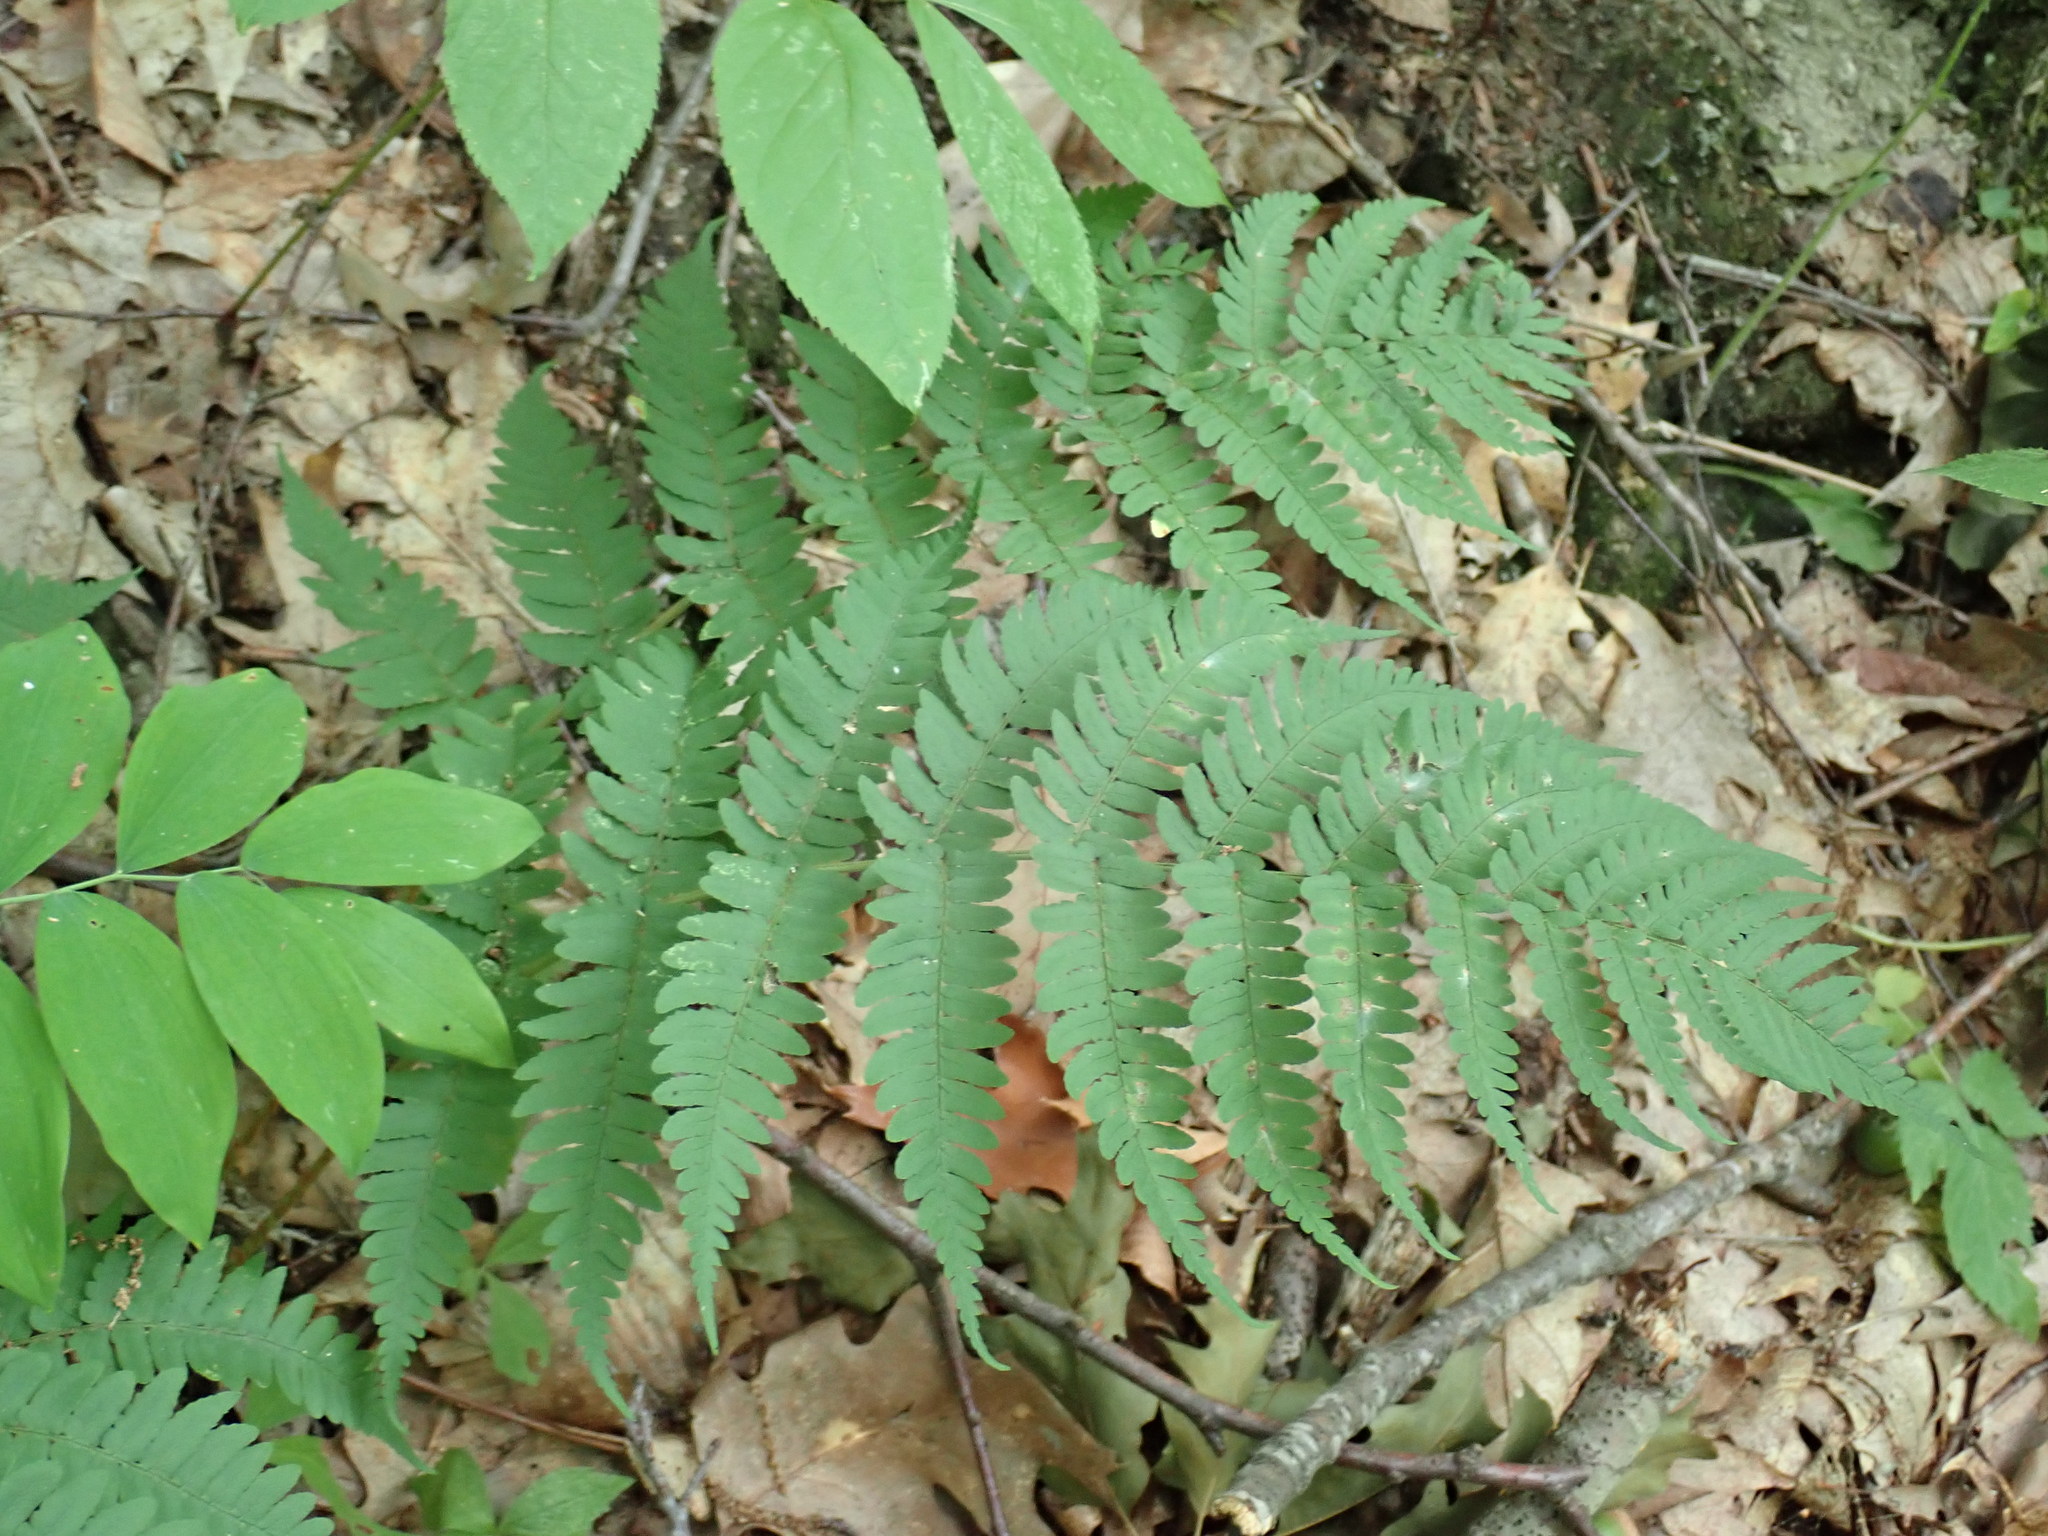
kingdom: Plantae
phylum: Tracheophyta
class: Polypodiopsida
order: Polypodiales
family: Dryopteridaceae
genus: Dryopteris
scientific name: Dryopteris marginalis
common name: Marginal wood fern
